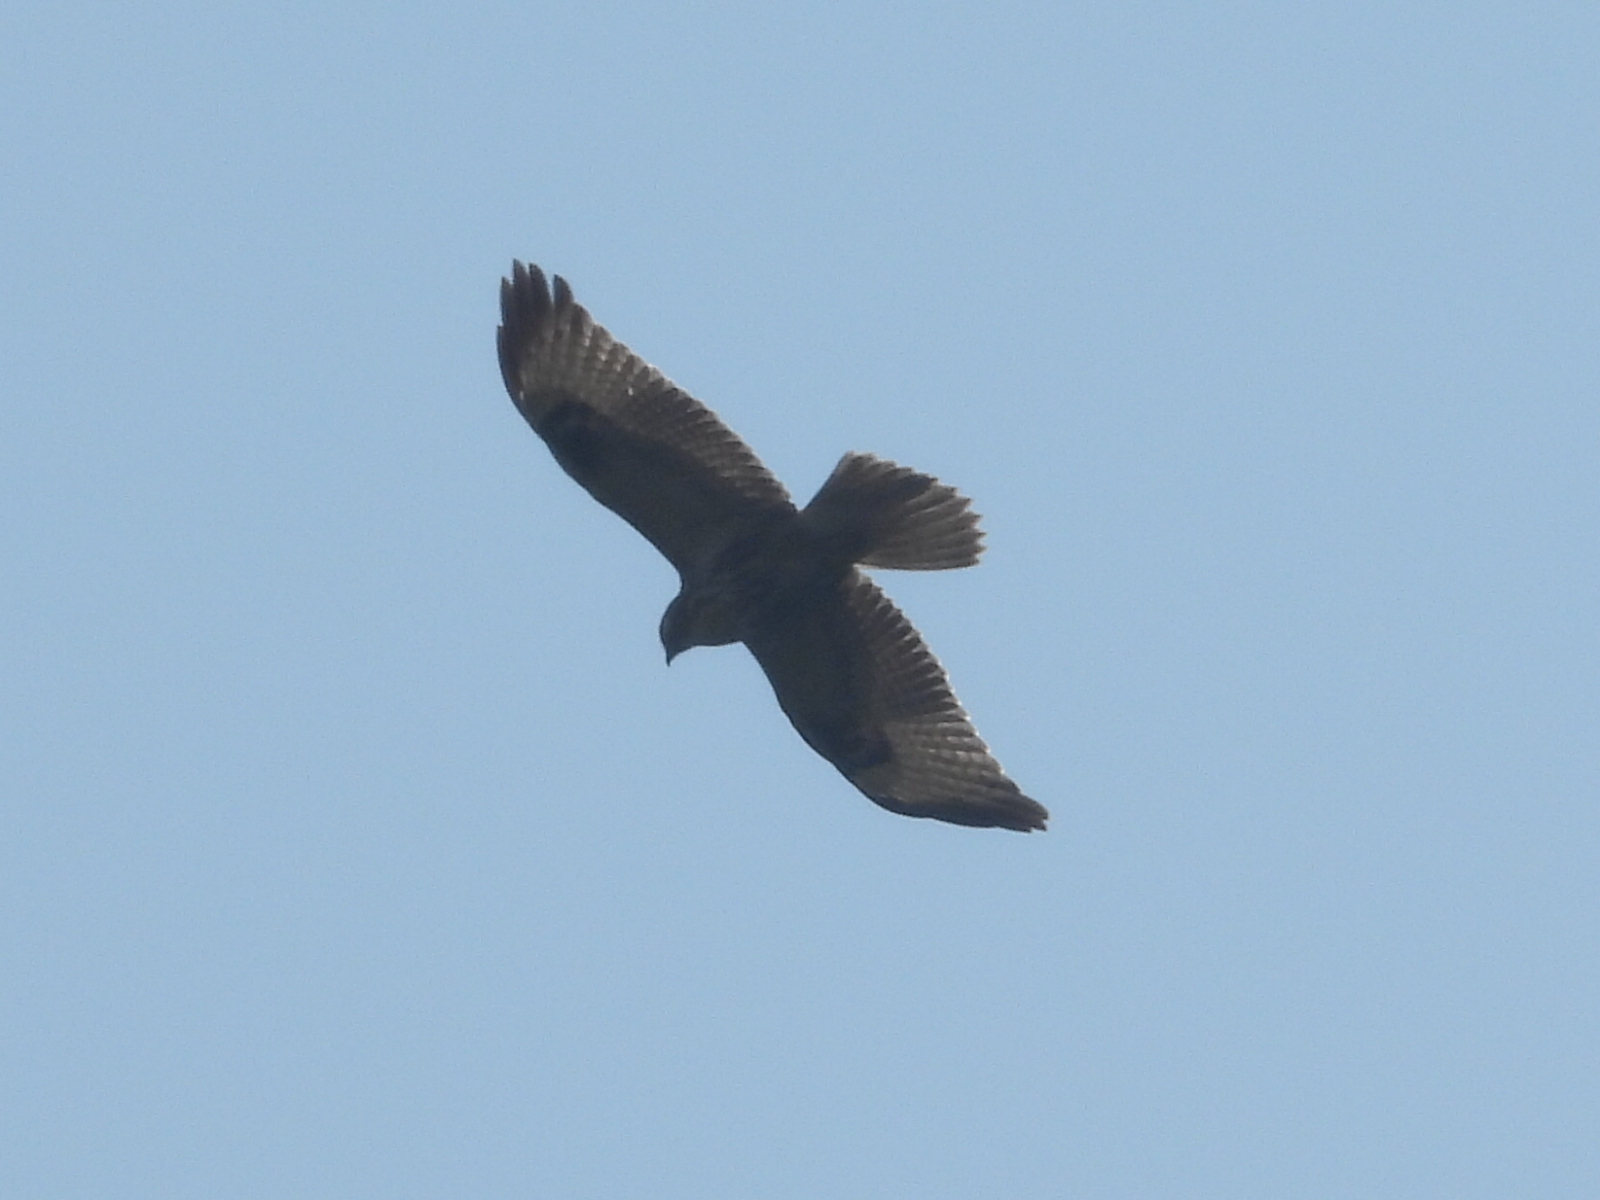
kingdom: Animalia
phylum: Chordata
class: Aves
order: Accipitriformes
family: Accipitridae
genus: Buteo
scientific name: Buteo japonicus
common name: Eastern buzzard
